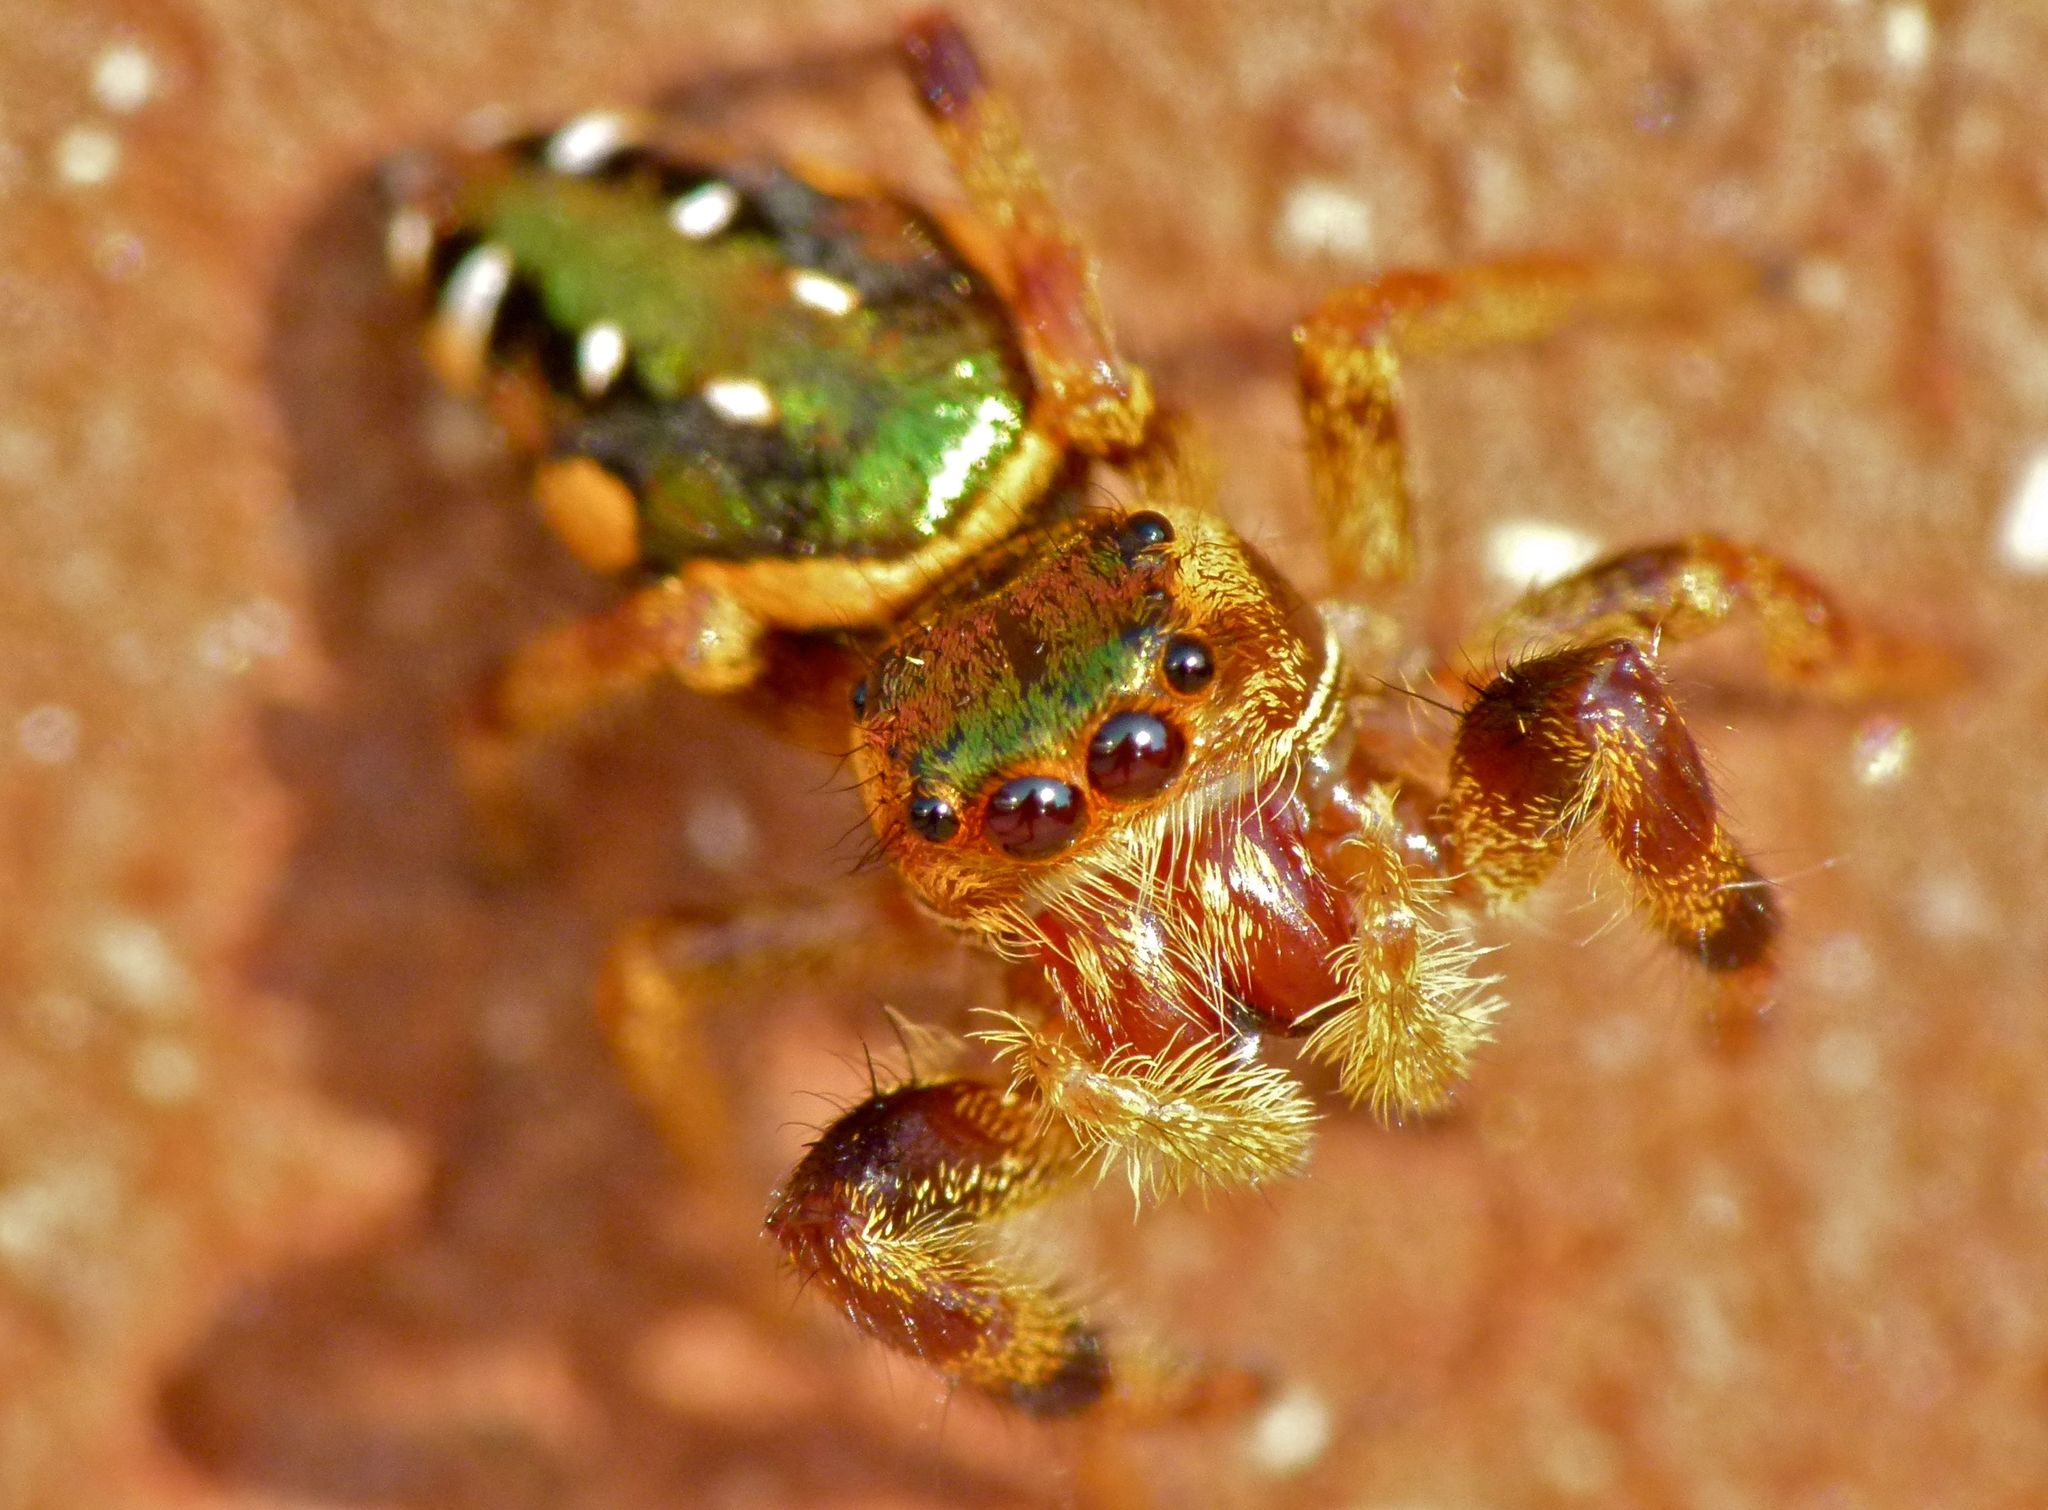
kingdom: Animalia
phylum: Arthropoda
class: Arachnida
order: Araneae
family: Salticidae
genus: Paraphidippus
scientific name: Paraphidippus aurantius
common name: Jumping spiders
